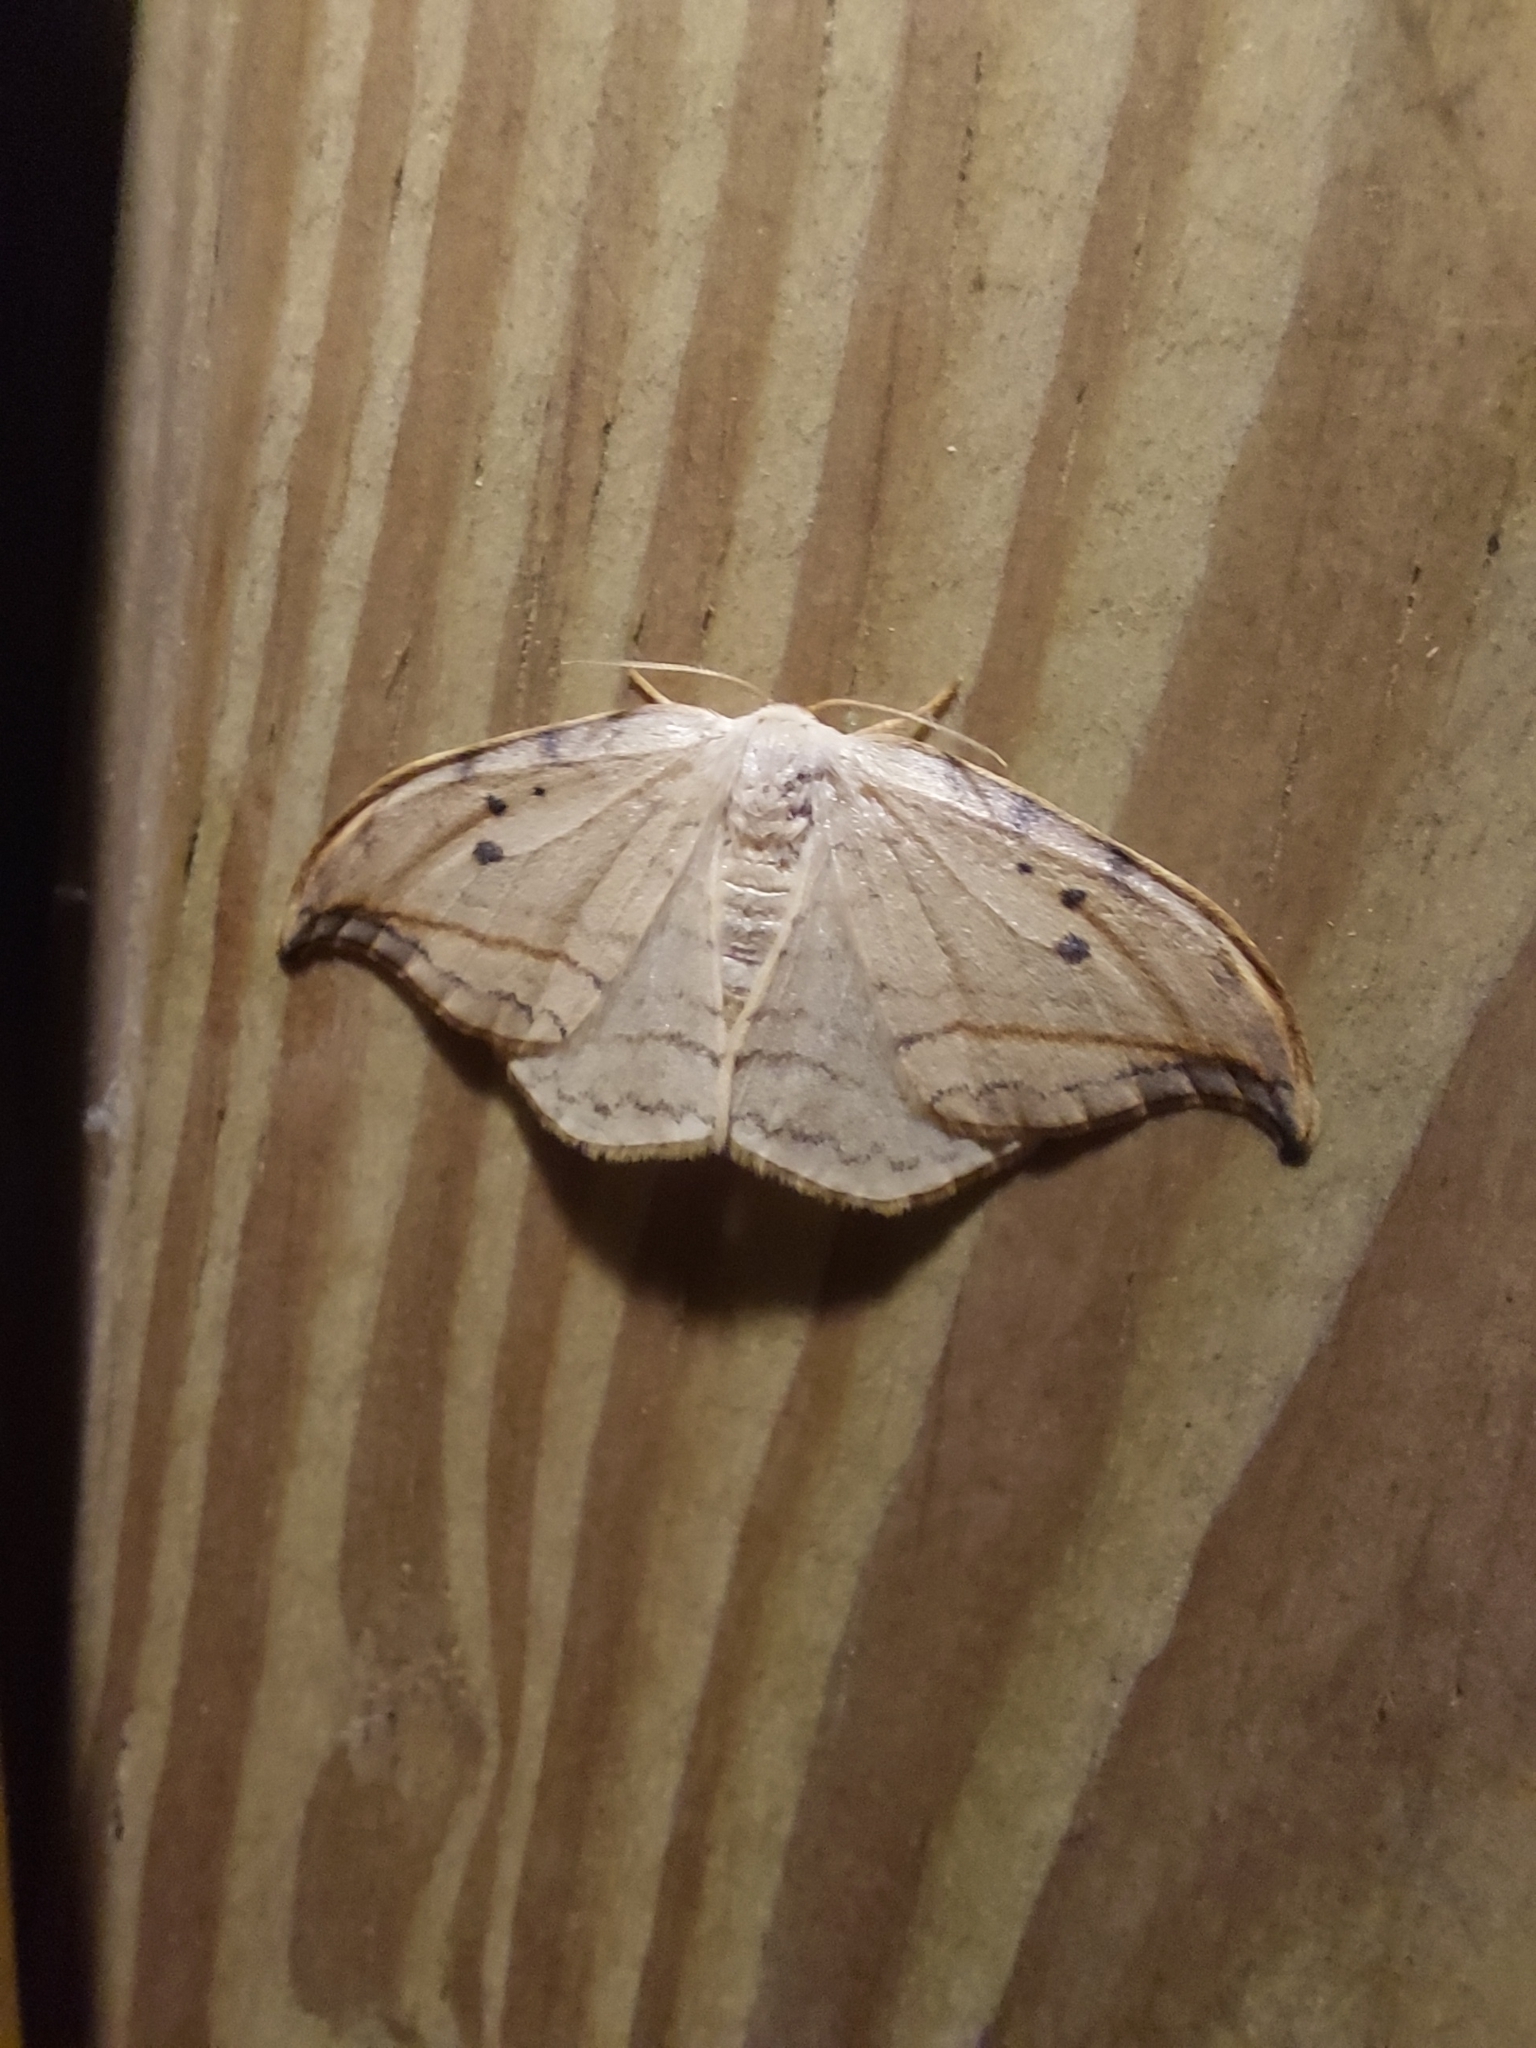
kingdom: Animalia
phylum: Arthropoda
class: Insecta
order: Lepidoptera
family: Drepanidae
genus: Drepana
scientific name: Drepana arcuata
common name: Arched hooktip moth
